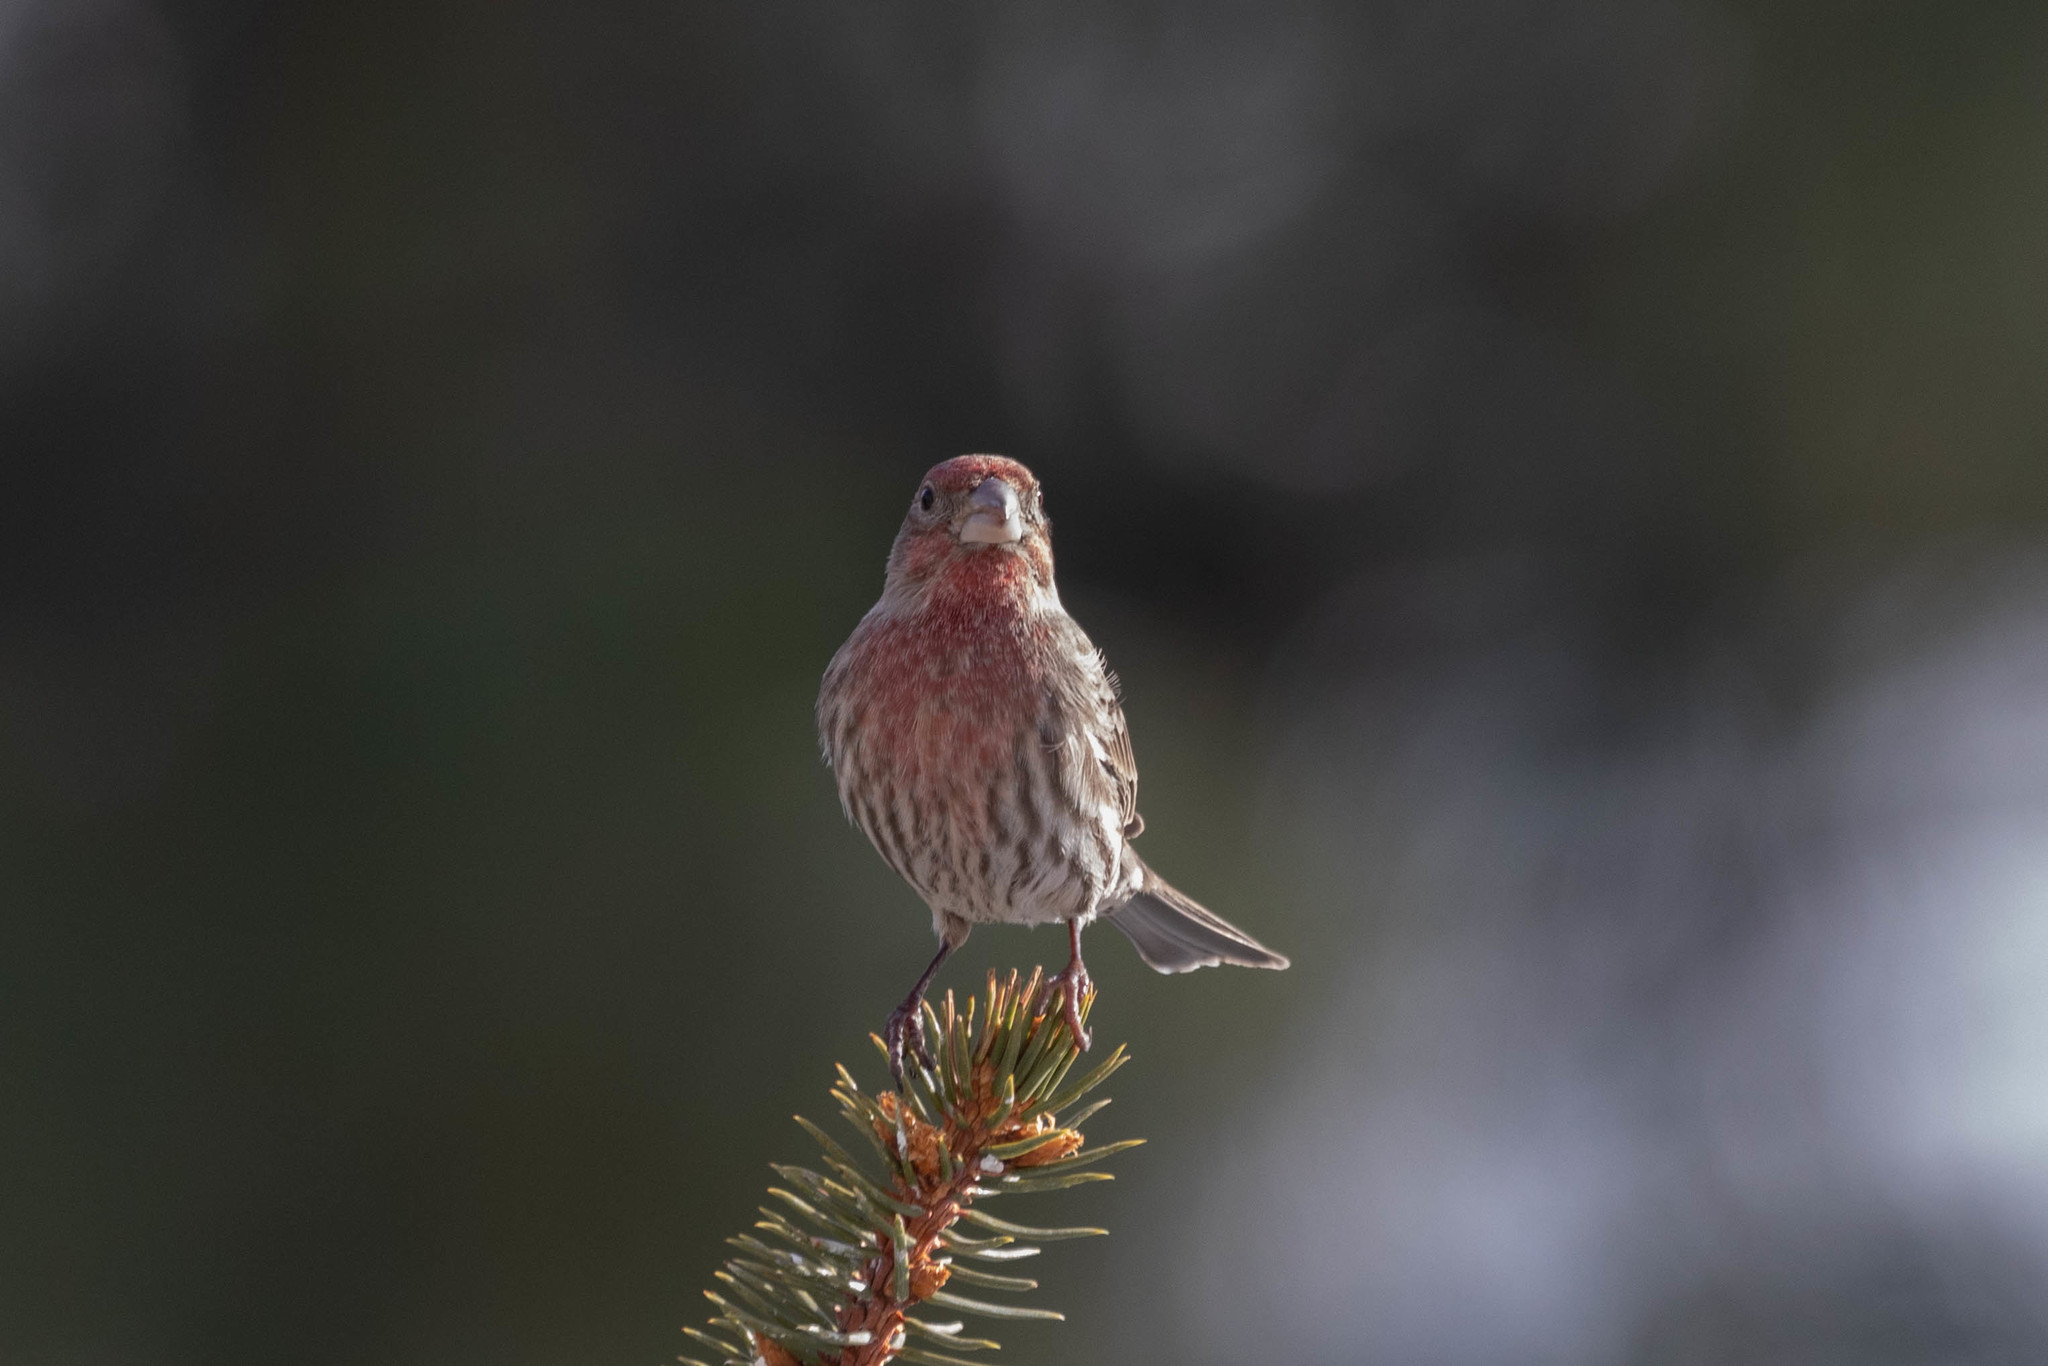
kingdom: Animalia
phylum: Chordata
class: Aves
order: Passeriformes
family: Fringillidae
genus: Haemorhous
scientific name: Haemorhous mexicanus
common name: House finch
